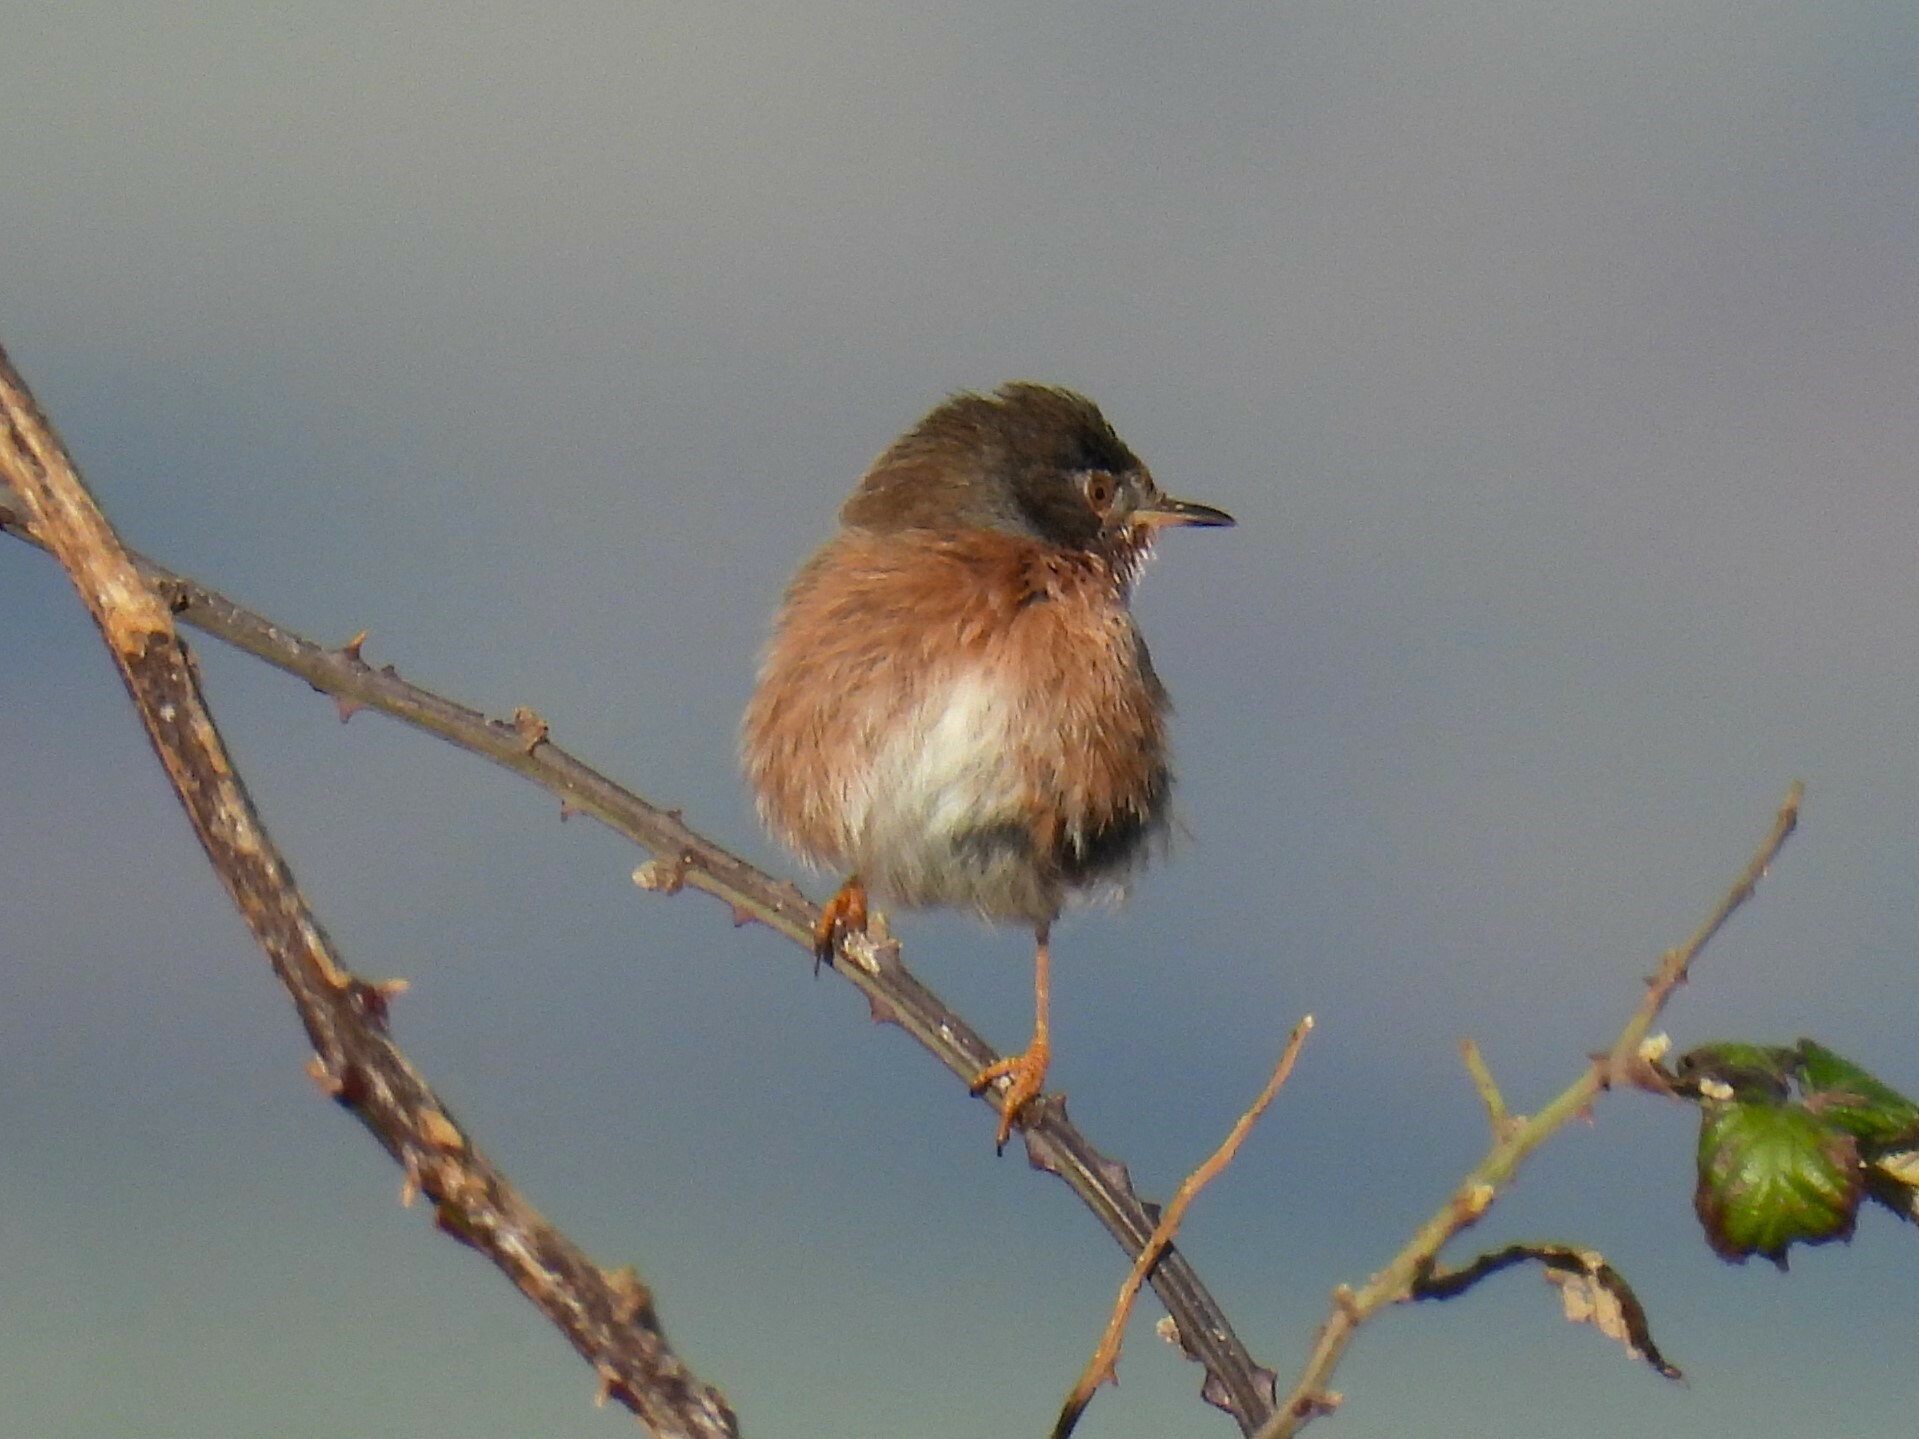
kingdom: Animalia
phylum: Chordata
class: Aves
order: Passeriformes
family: Sylviidae
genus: Sylvia
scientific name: Sylvia undata
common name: Dartford warbler
